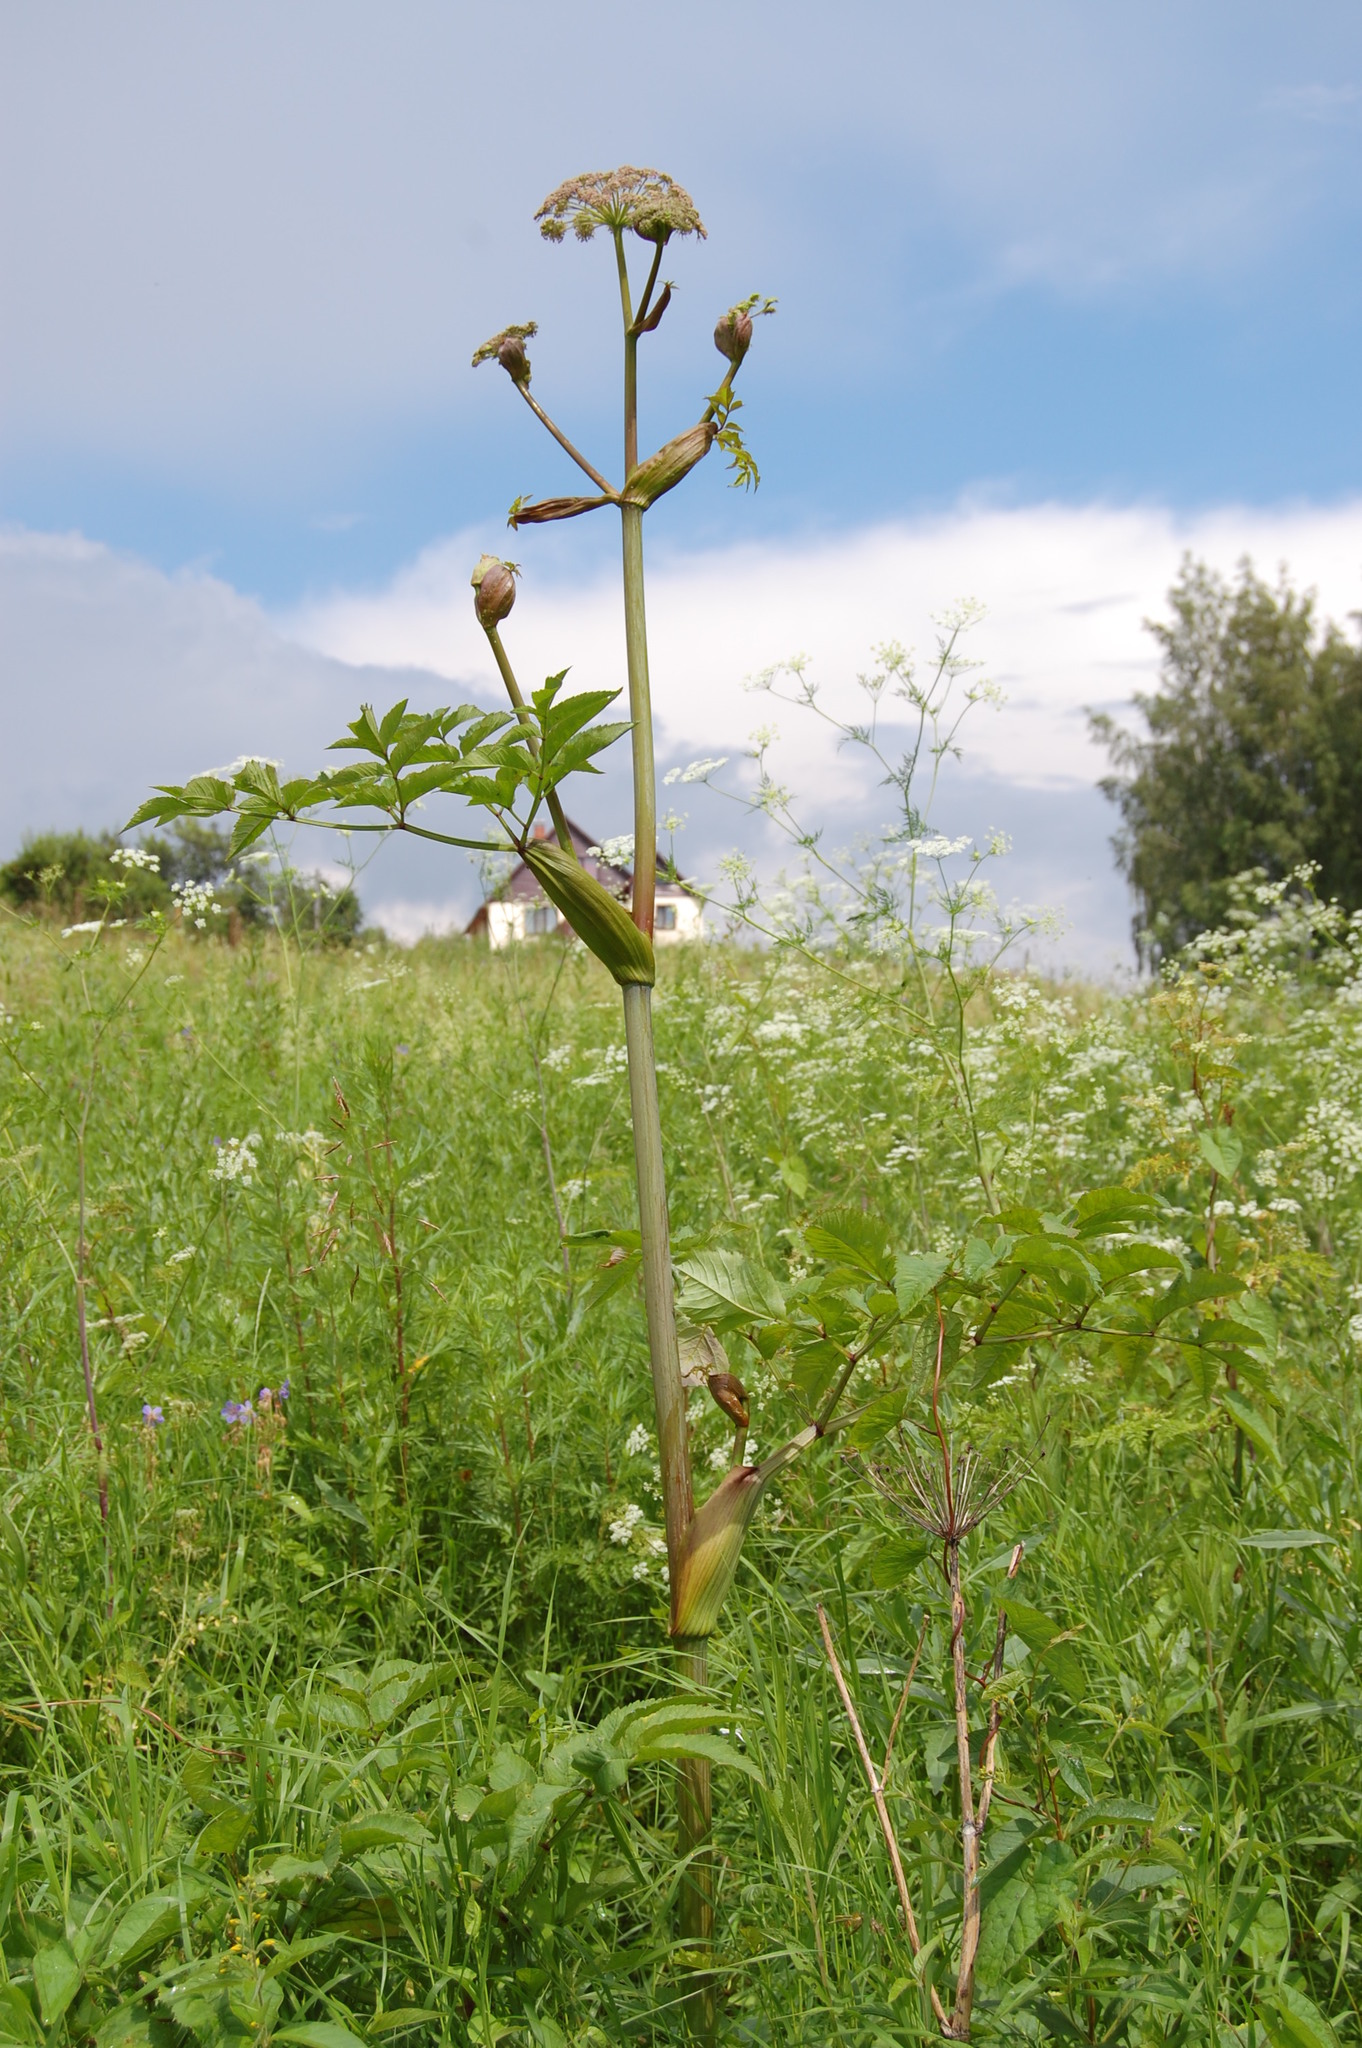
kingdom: Plantae
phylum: Tracheophyta
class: Magnoliopsida
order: Apiales
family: Apiaceae
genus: Angelica
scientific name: Angelica sylvestris
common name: Wild angelica
